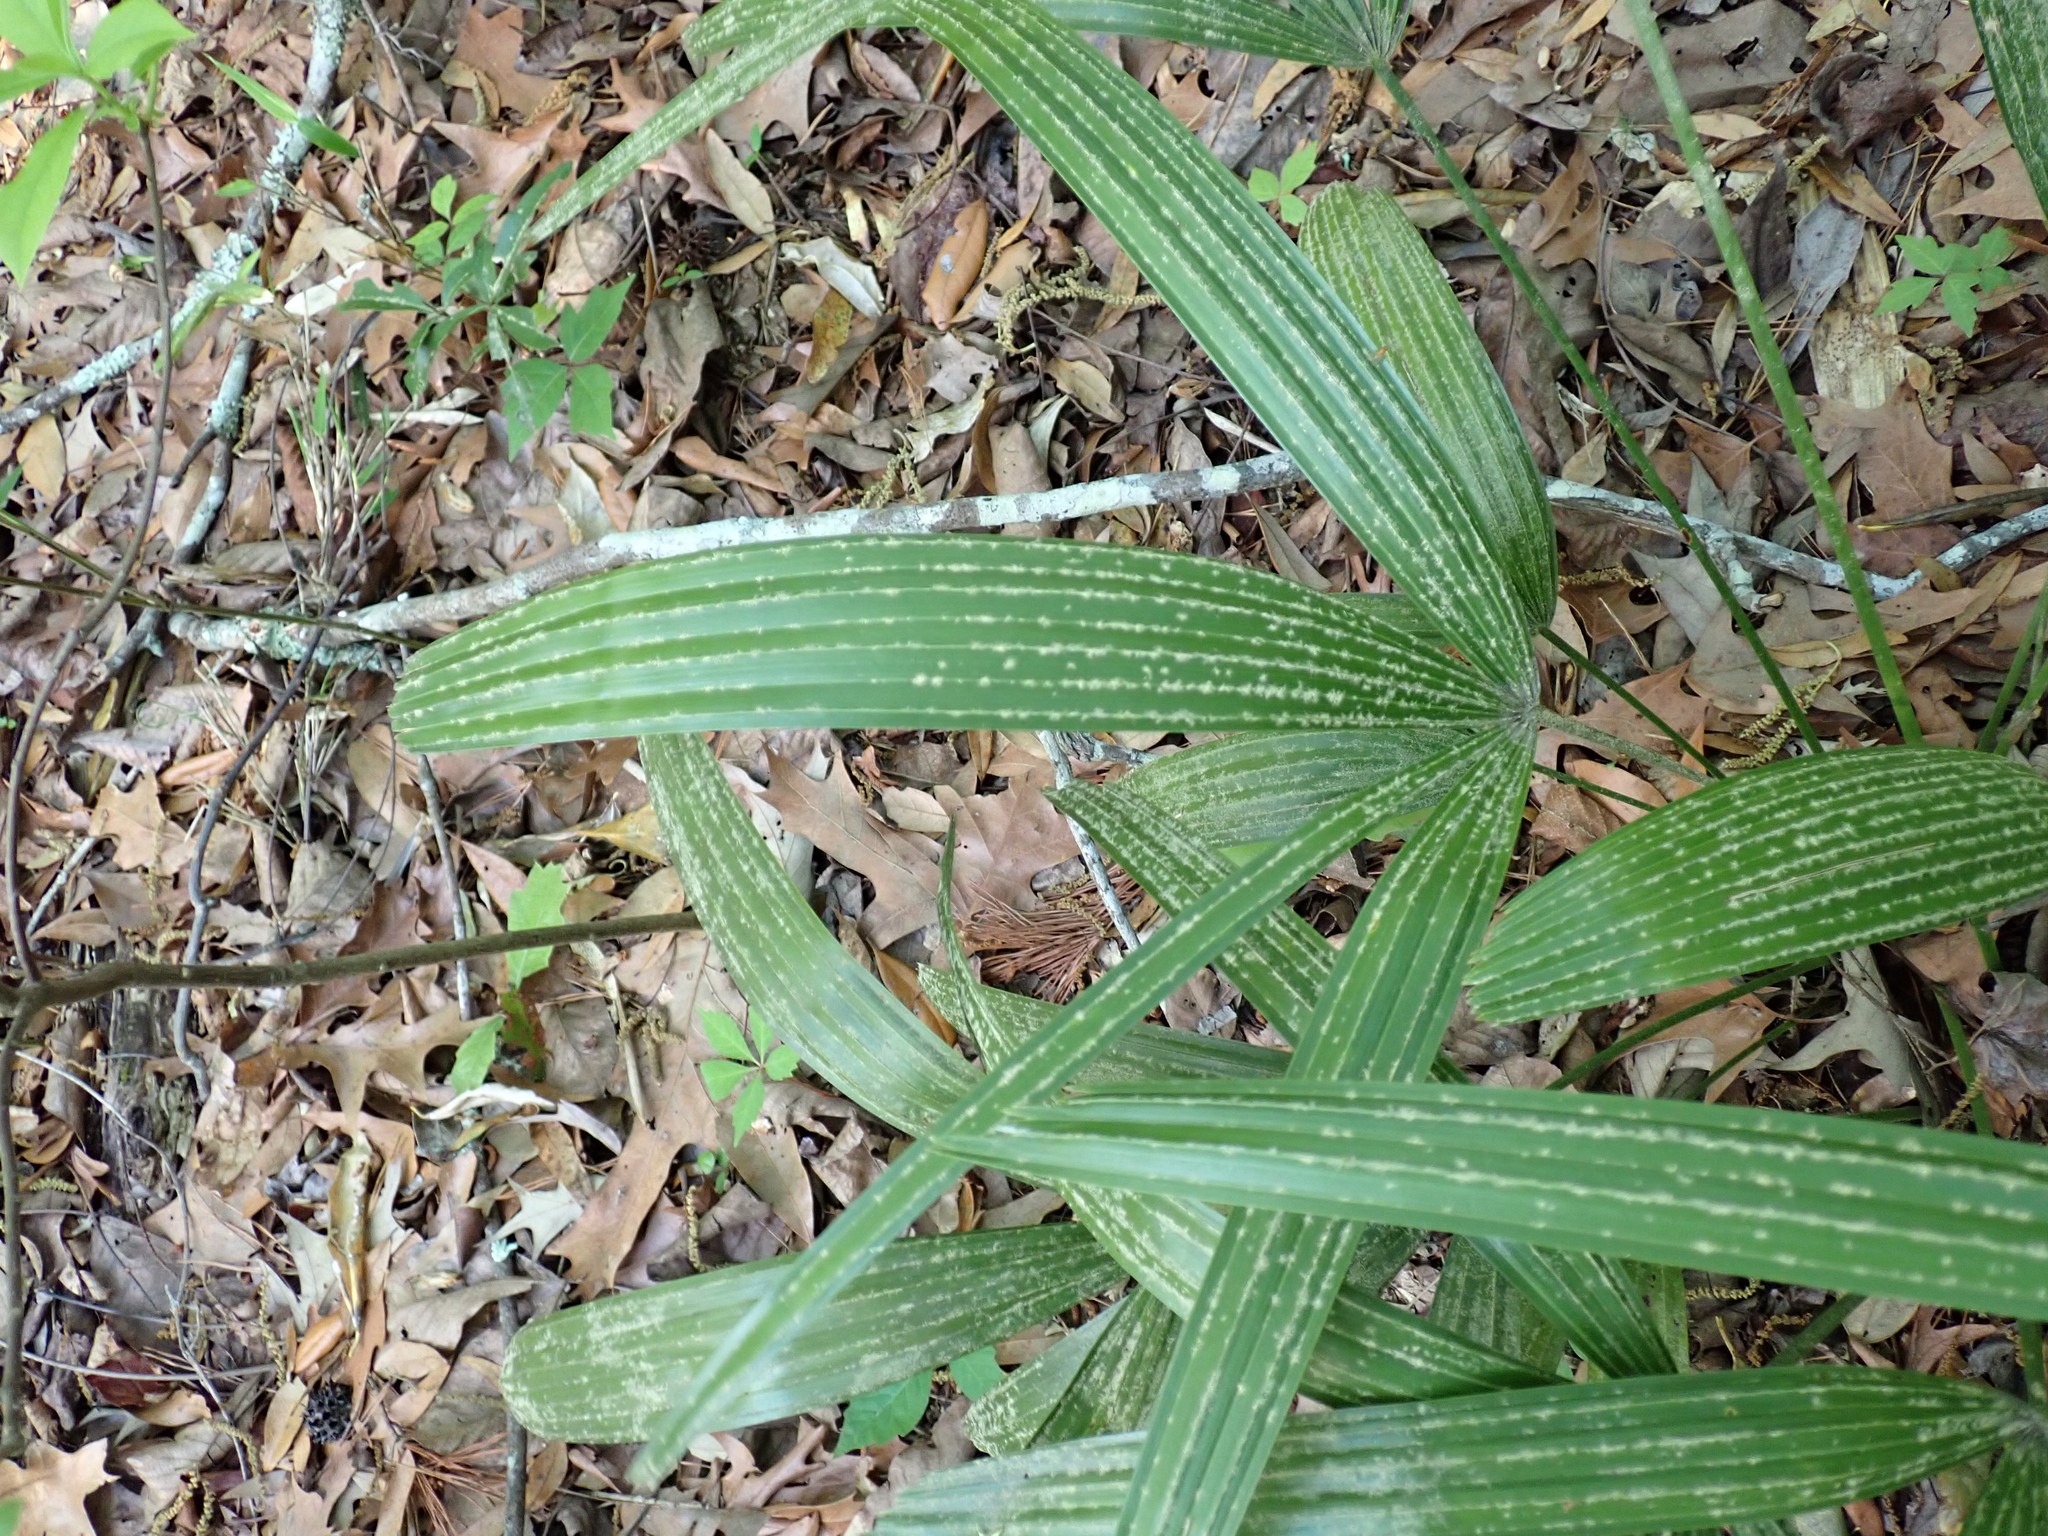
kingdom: Plantae
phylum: Tracheophyta
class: Liliopsida
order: Arecales
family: Arecaceae
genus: Rhapidophyllum
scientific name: Rhapidophyllum hystrix
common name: Porcupine palm
